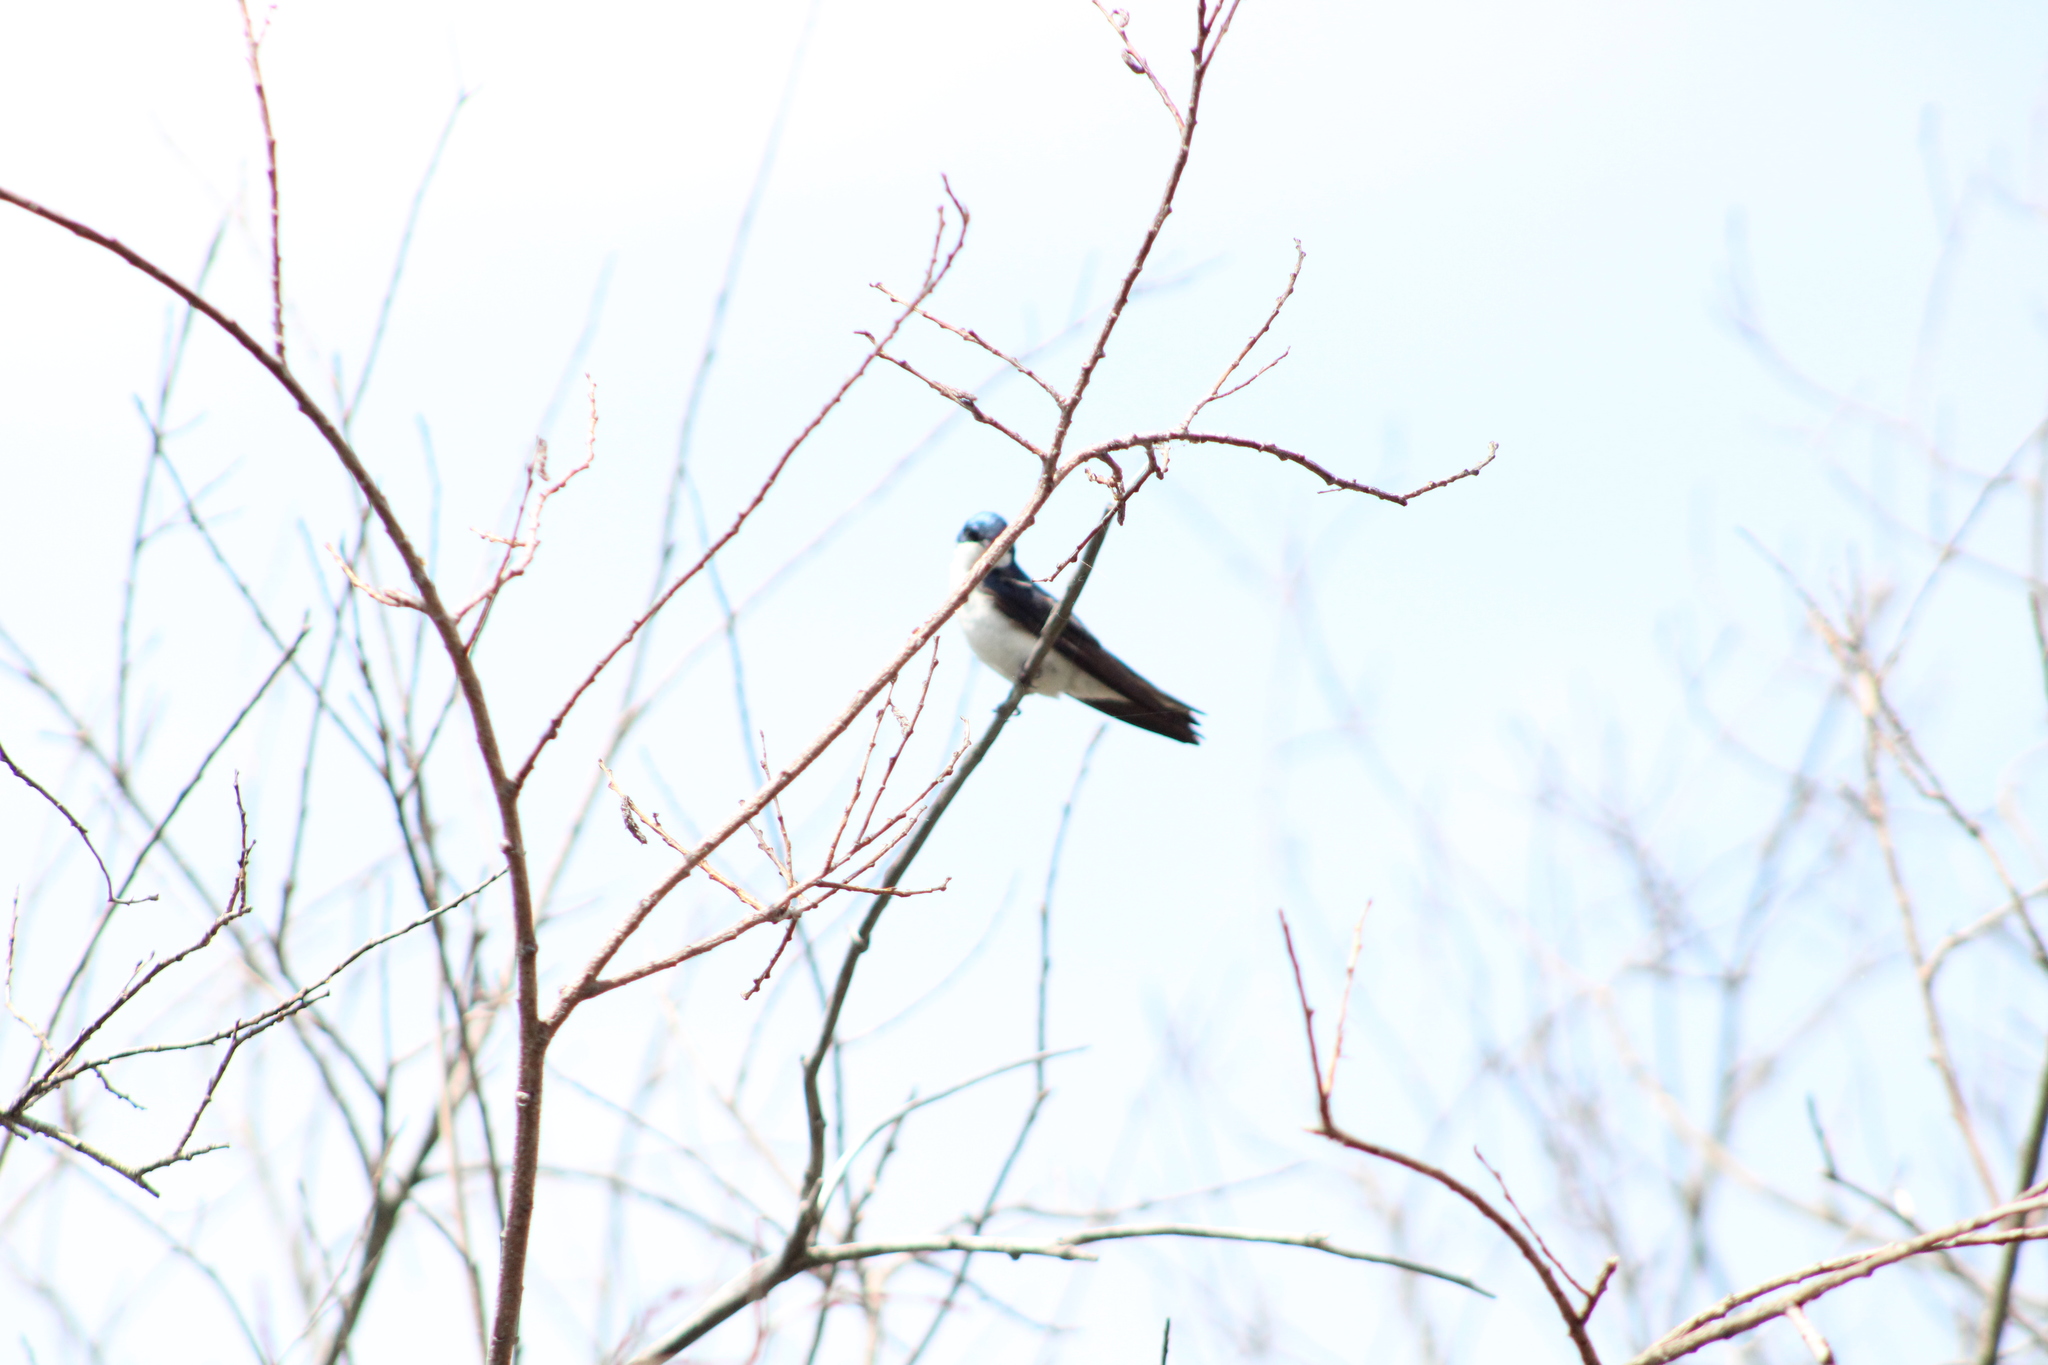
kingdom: Animalia
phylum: Chordata
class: Aves
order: Passeriformes
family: Hirundinidae
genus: Tachycineta
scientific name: Tachycineta bicolor
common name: Tree swallow
